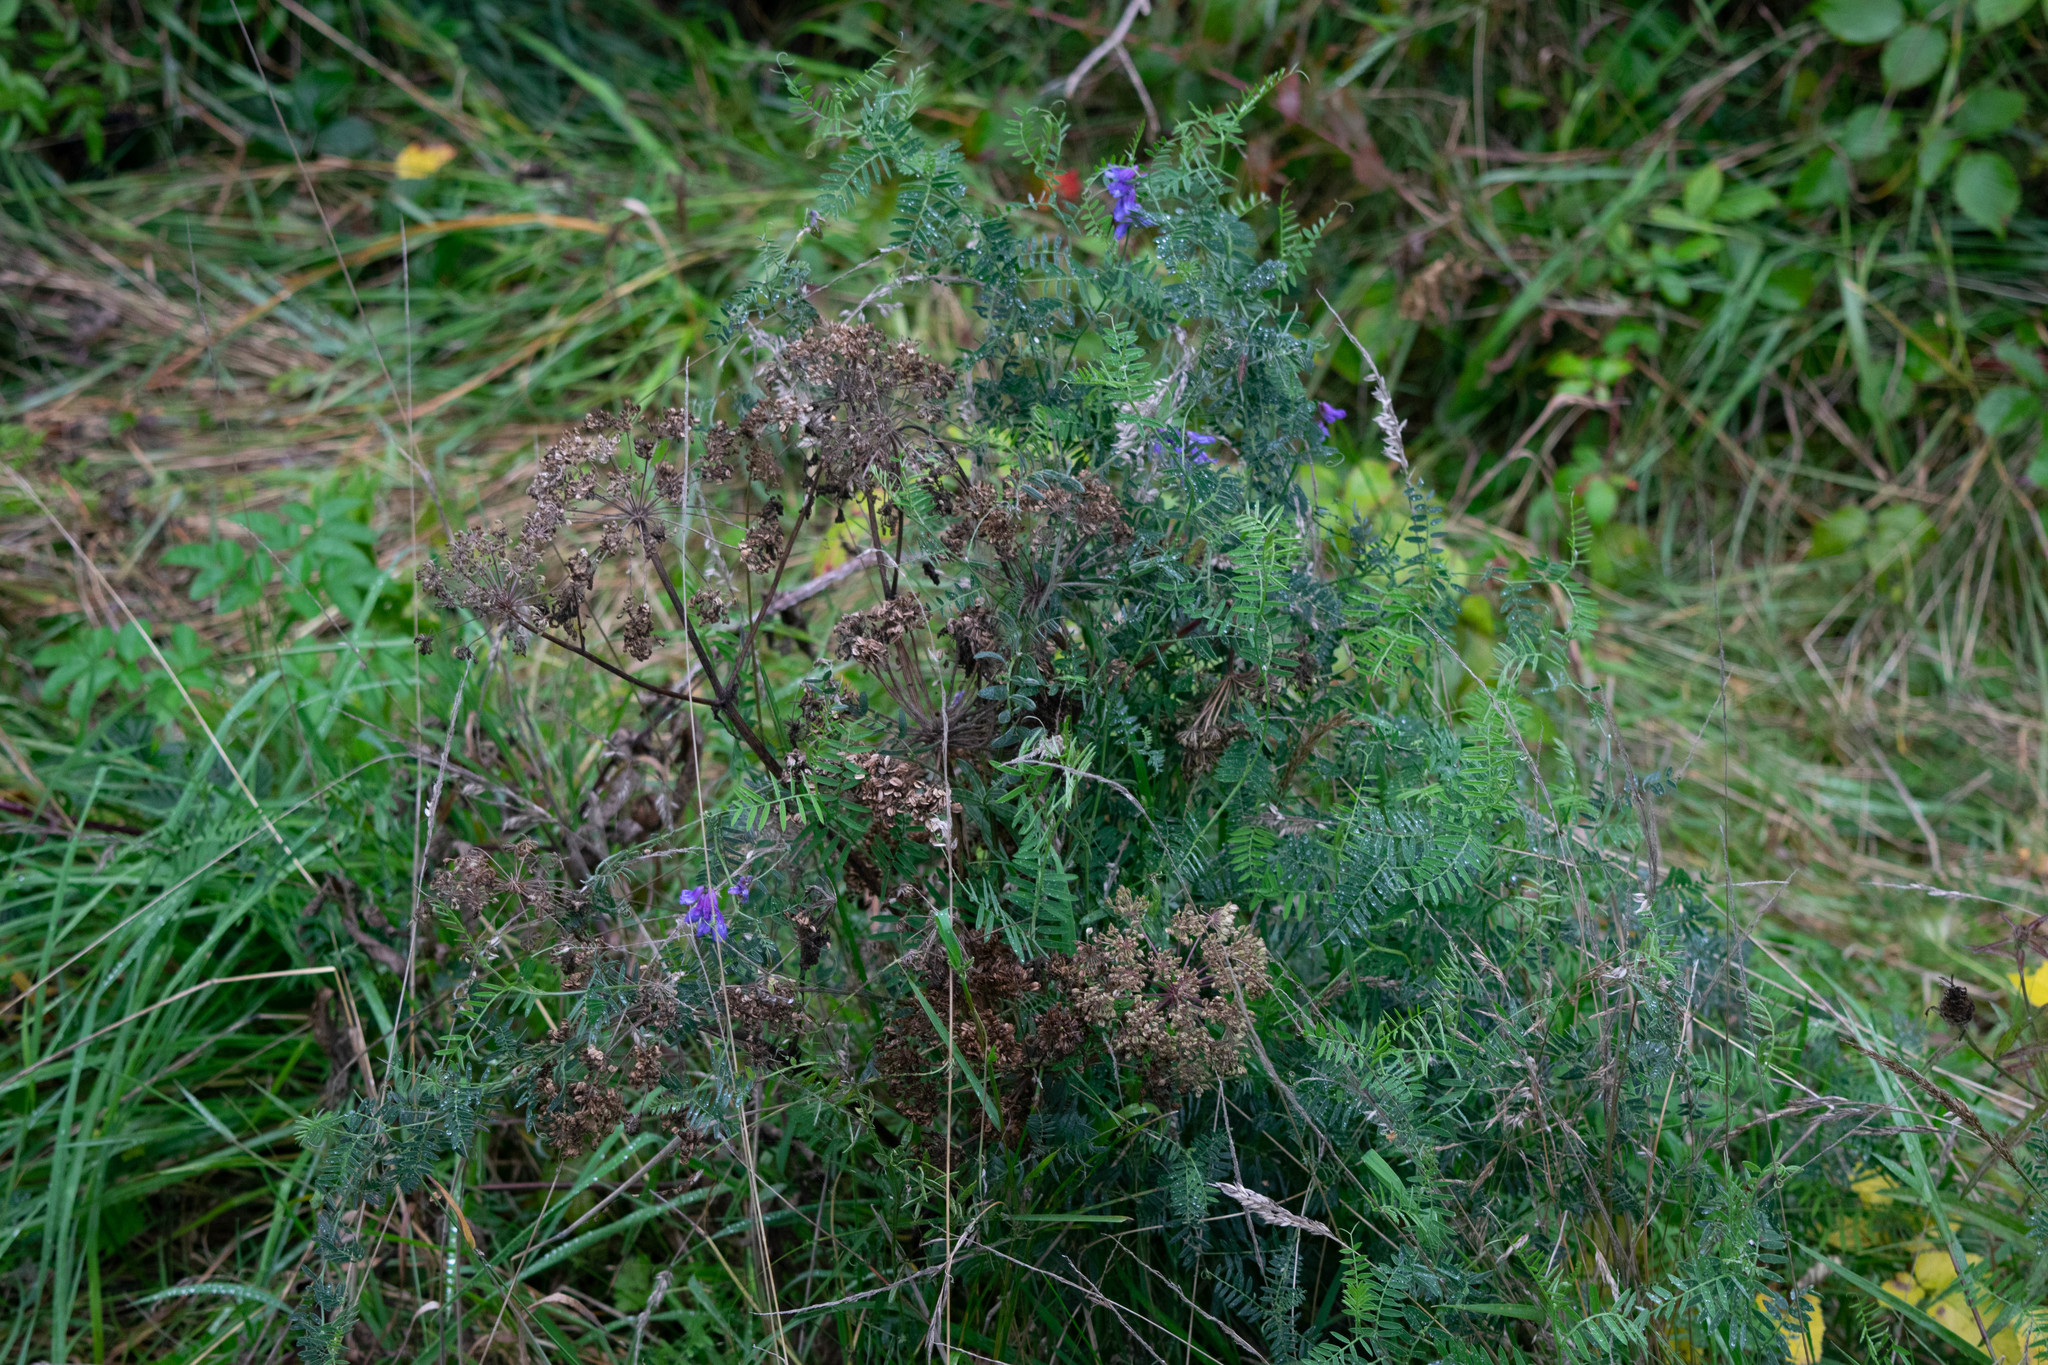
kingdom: Plantae
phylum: Tracheophyta
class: Magnoliopsida
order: Fabales
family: Fabaceae
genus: Vicia
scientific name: Vicia cracca
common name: Bird vetch
